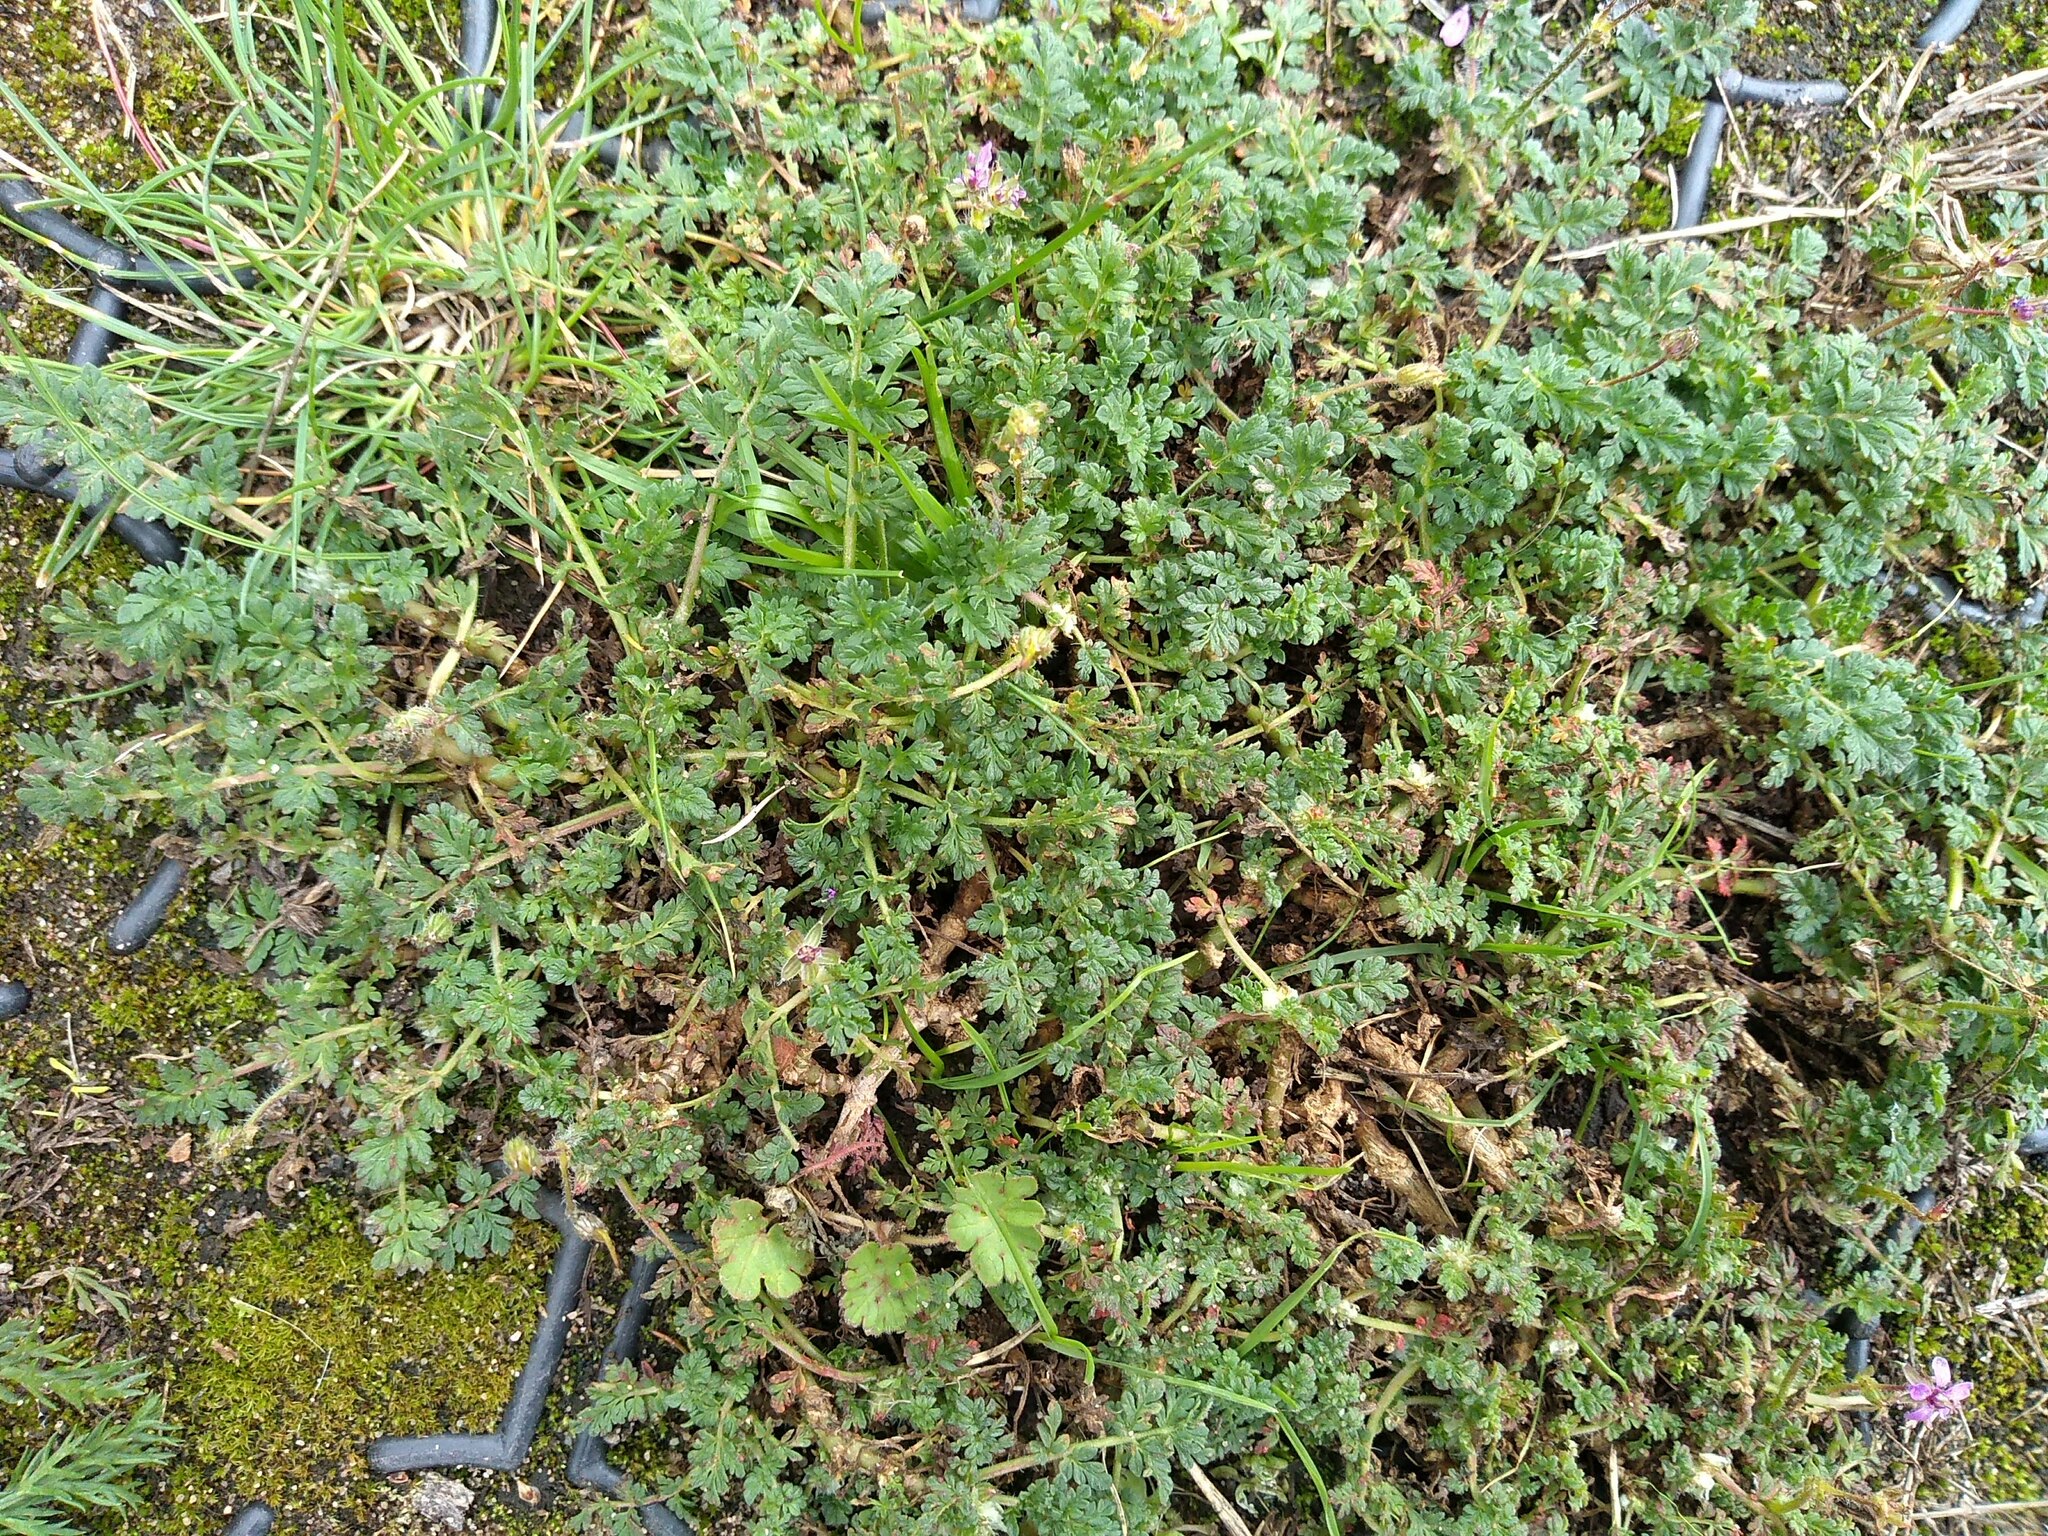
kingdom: Plantae
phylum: Tracheophyta
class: Magnoliopsida
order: Geraniales
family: Geraniaceae
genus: Erodium
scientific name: Erodium cicutarium
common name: Common stork's-bill
